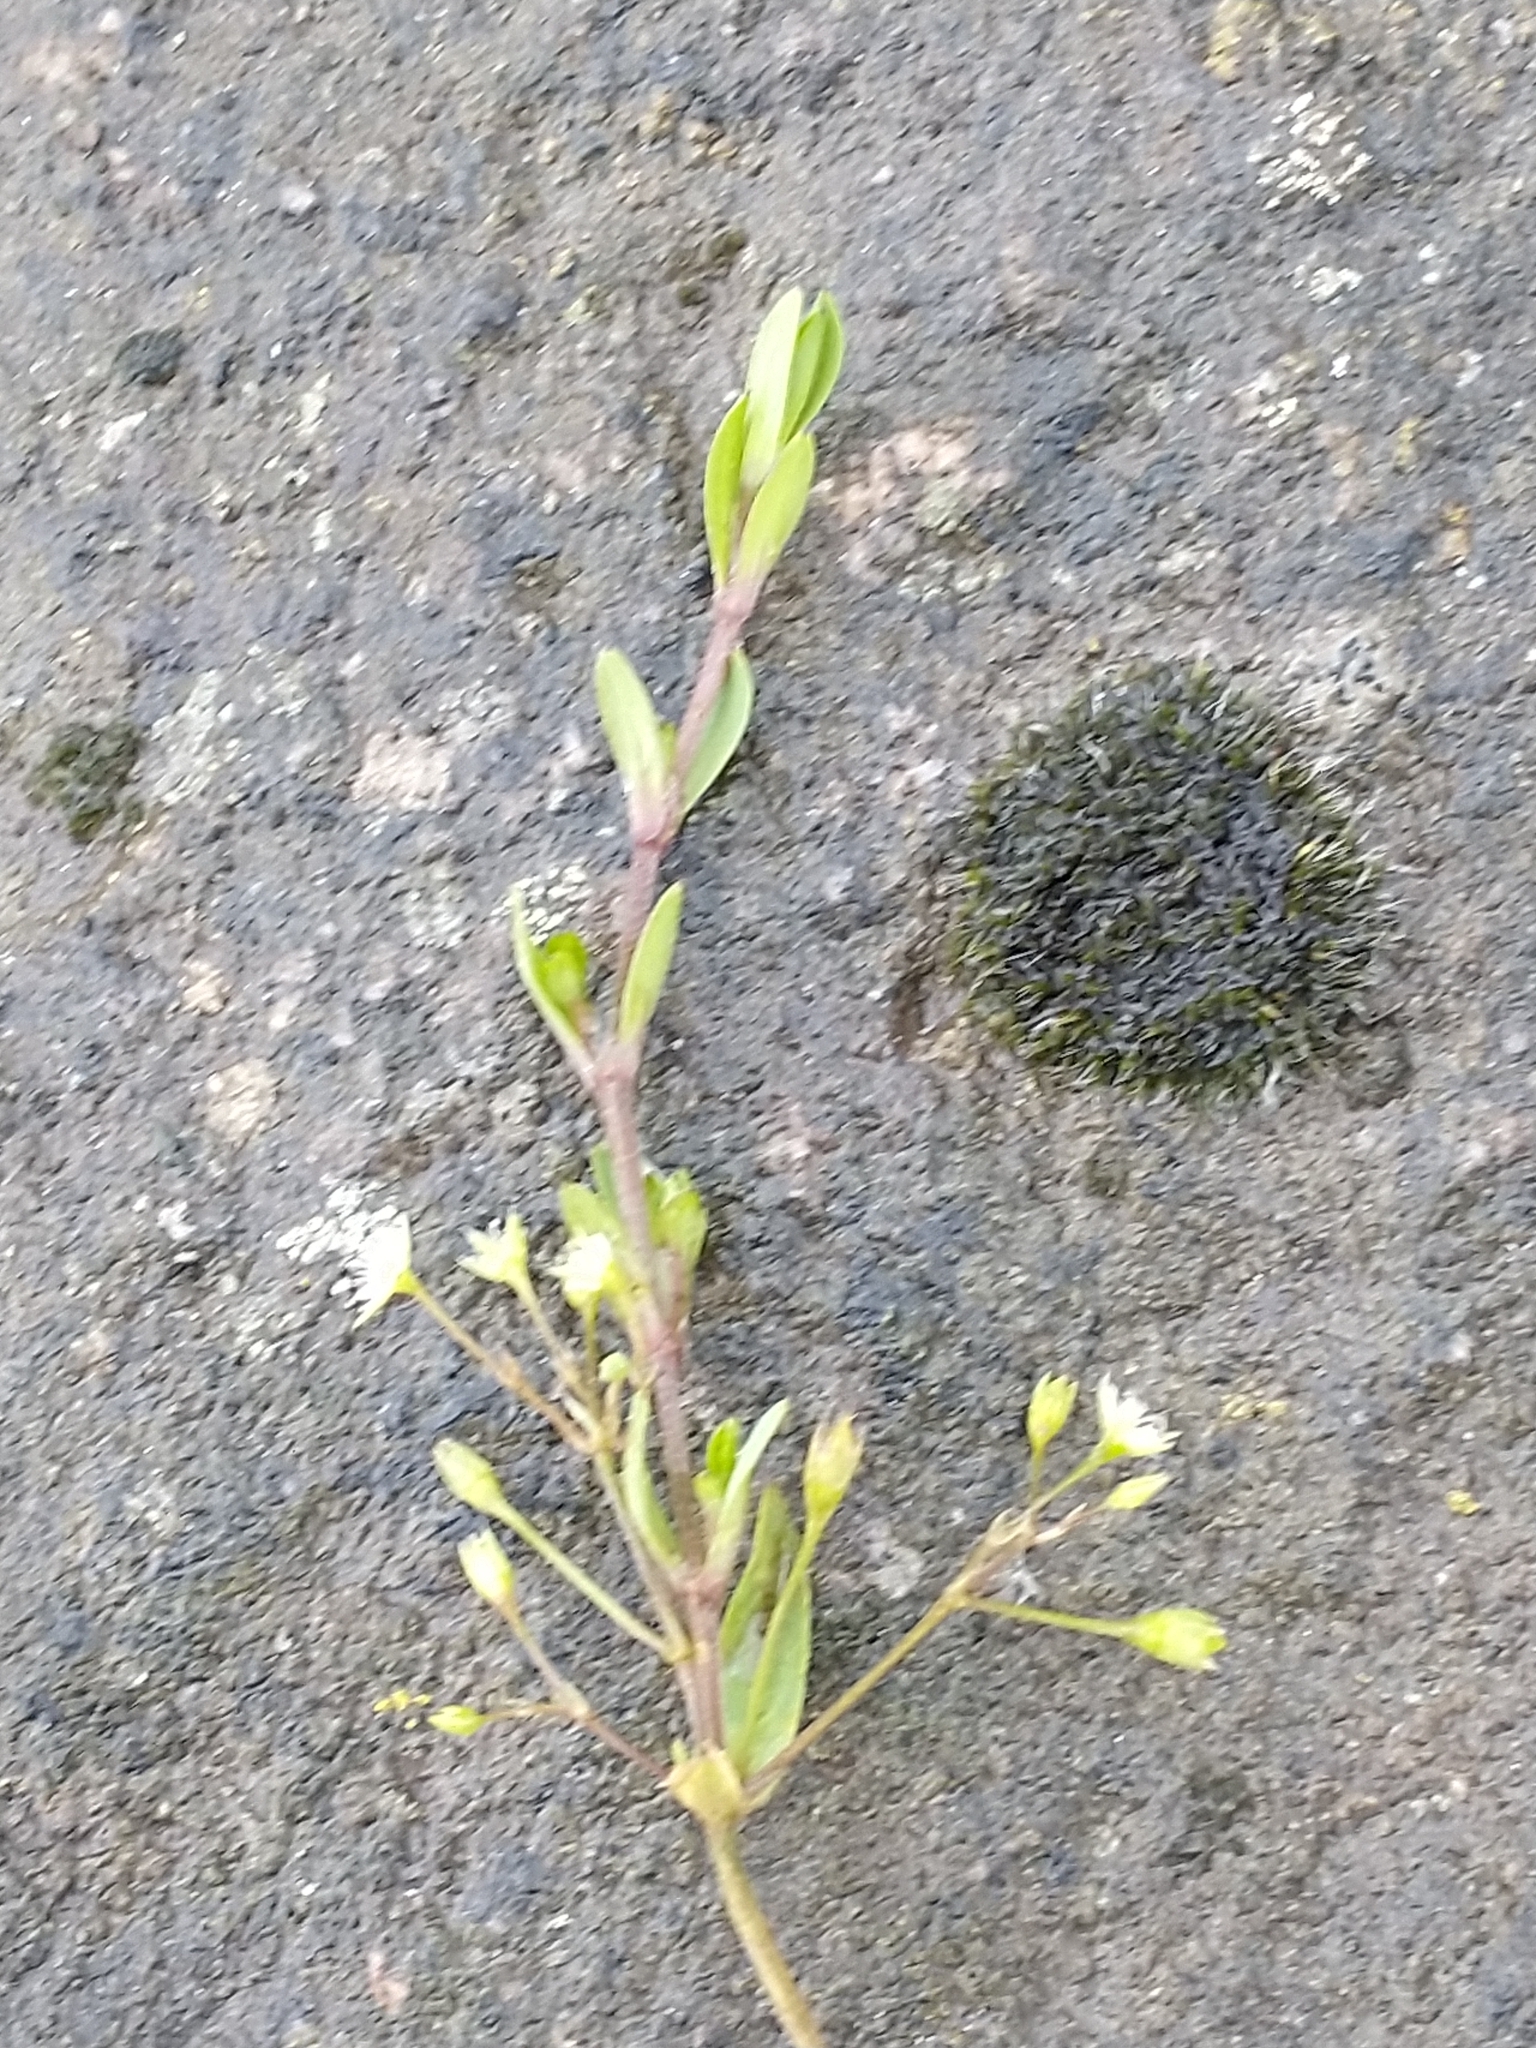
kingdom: Plantae
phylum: Tracheophyta
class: Magnoliopsida
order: Caryophyllales
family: Caryophyllaceae
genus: Stellaria
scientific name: Stellaria alsine
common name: Bog stitchwort
